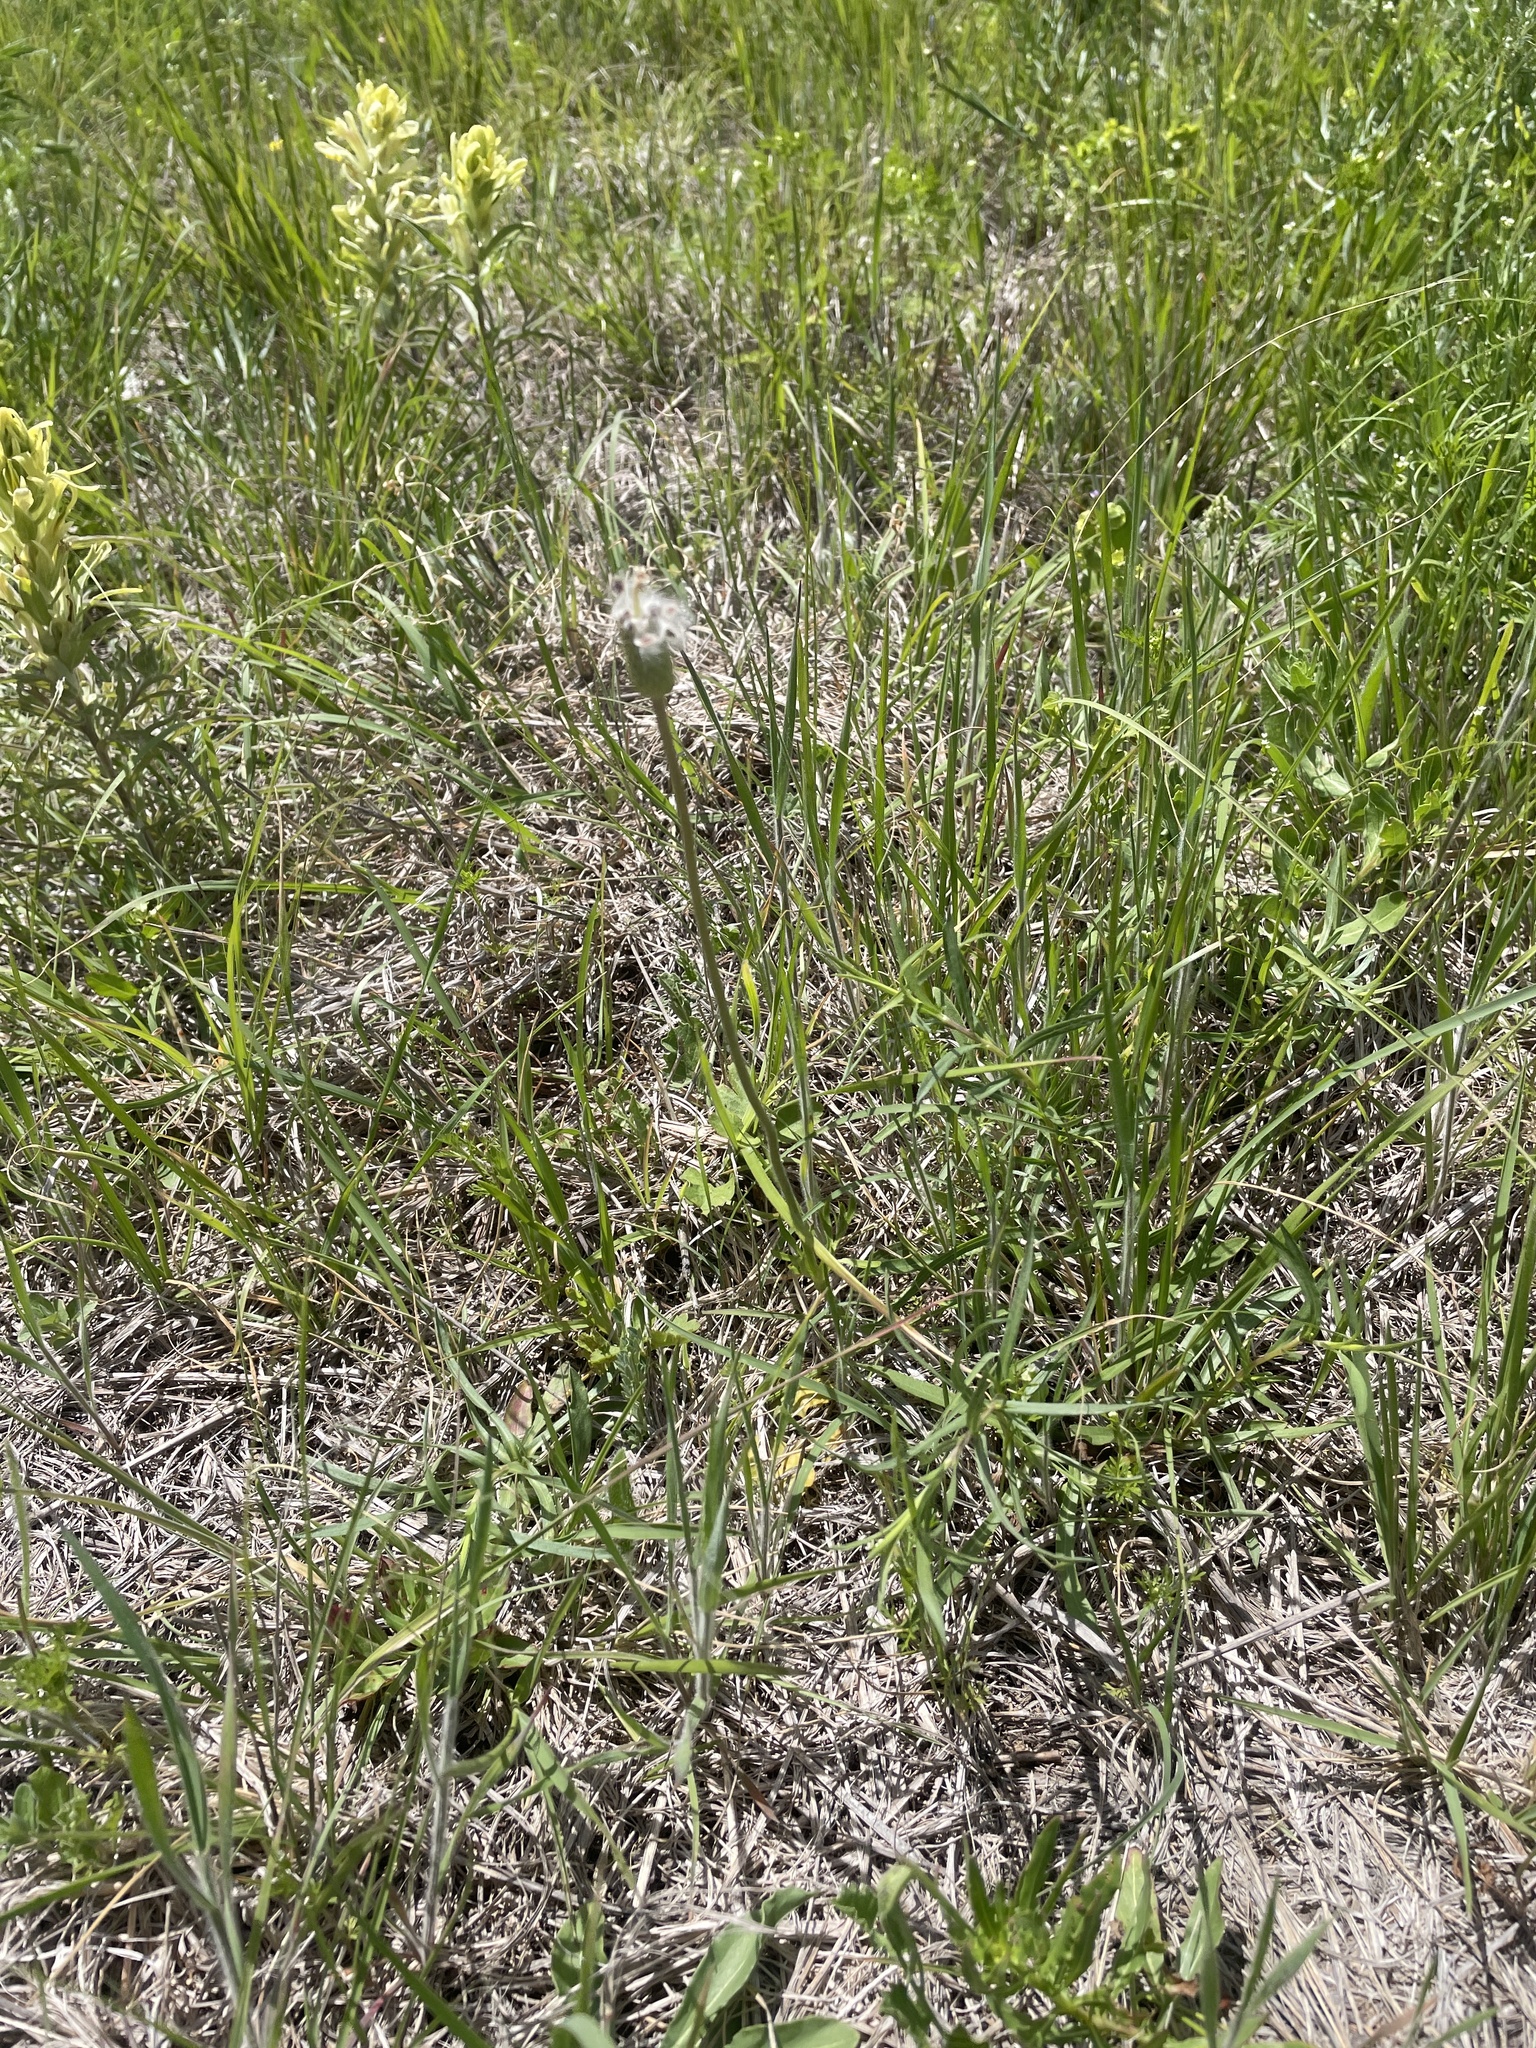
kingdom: Plantae
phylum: Tracheophyta
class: Magnoliopsida
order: Ranunculales
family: Ranunculaceae
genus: Anemone
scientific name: Anemone berlandieri
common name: Ten-petal anemone
